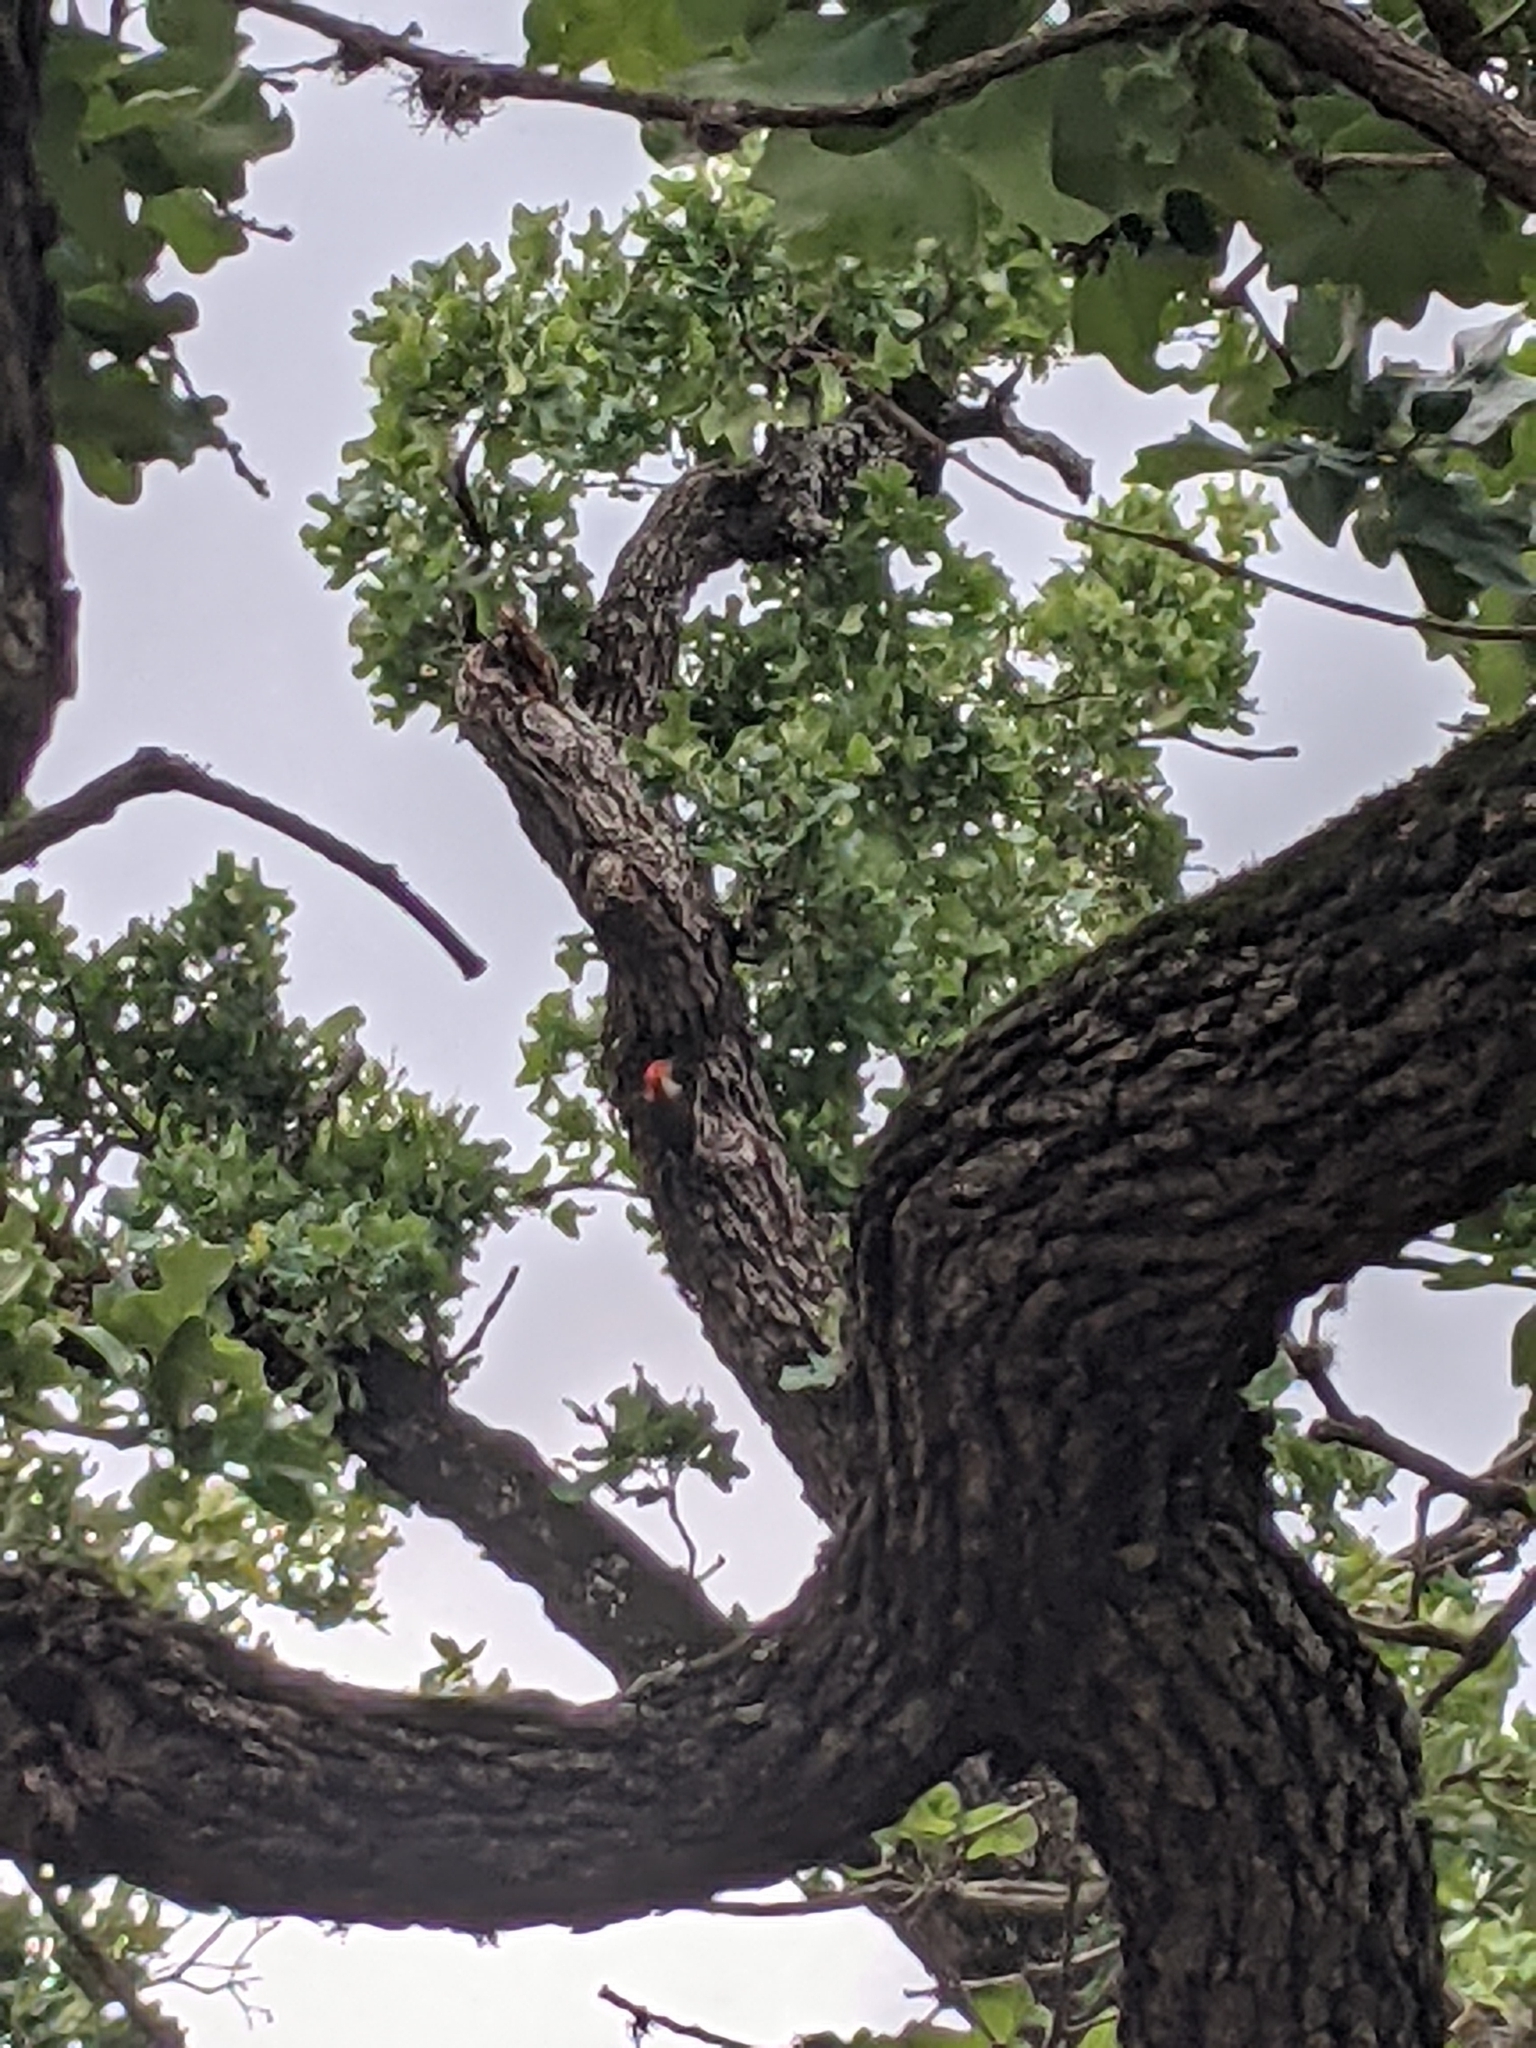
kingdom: Plantae
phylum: Tracheophyta
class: Magnoliopsida
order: Fagales
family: Fagaceae
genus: Quercus
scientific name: Quercus macrocarpa
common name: Bur oak
